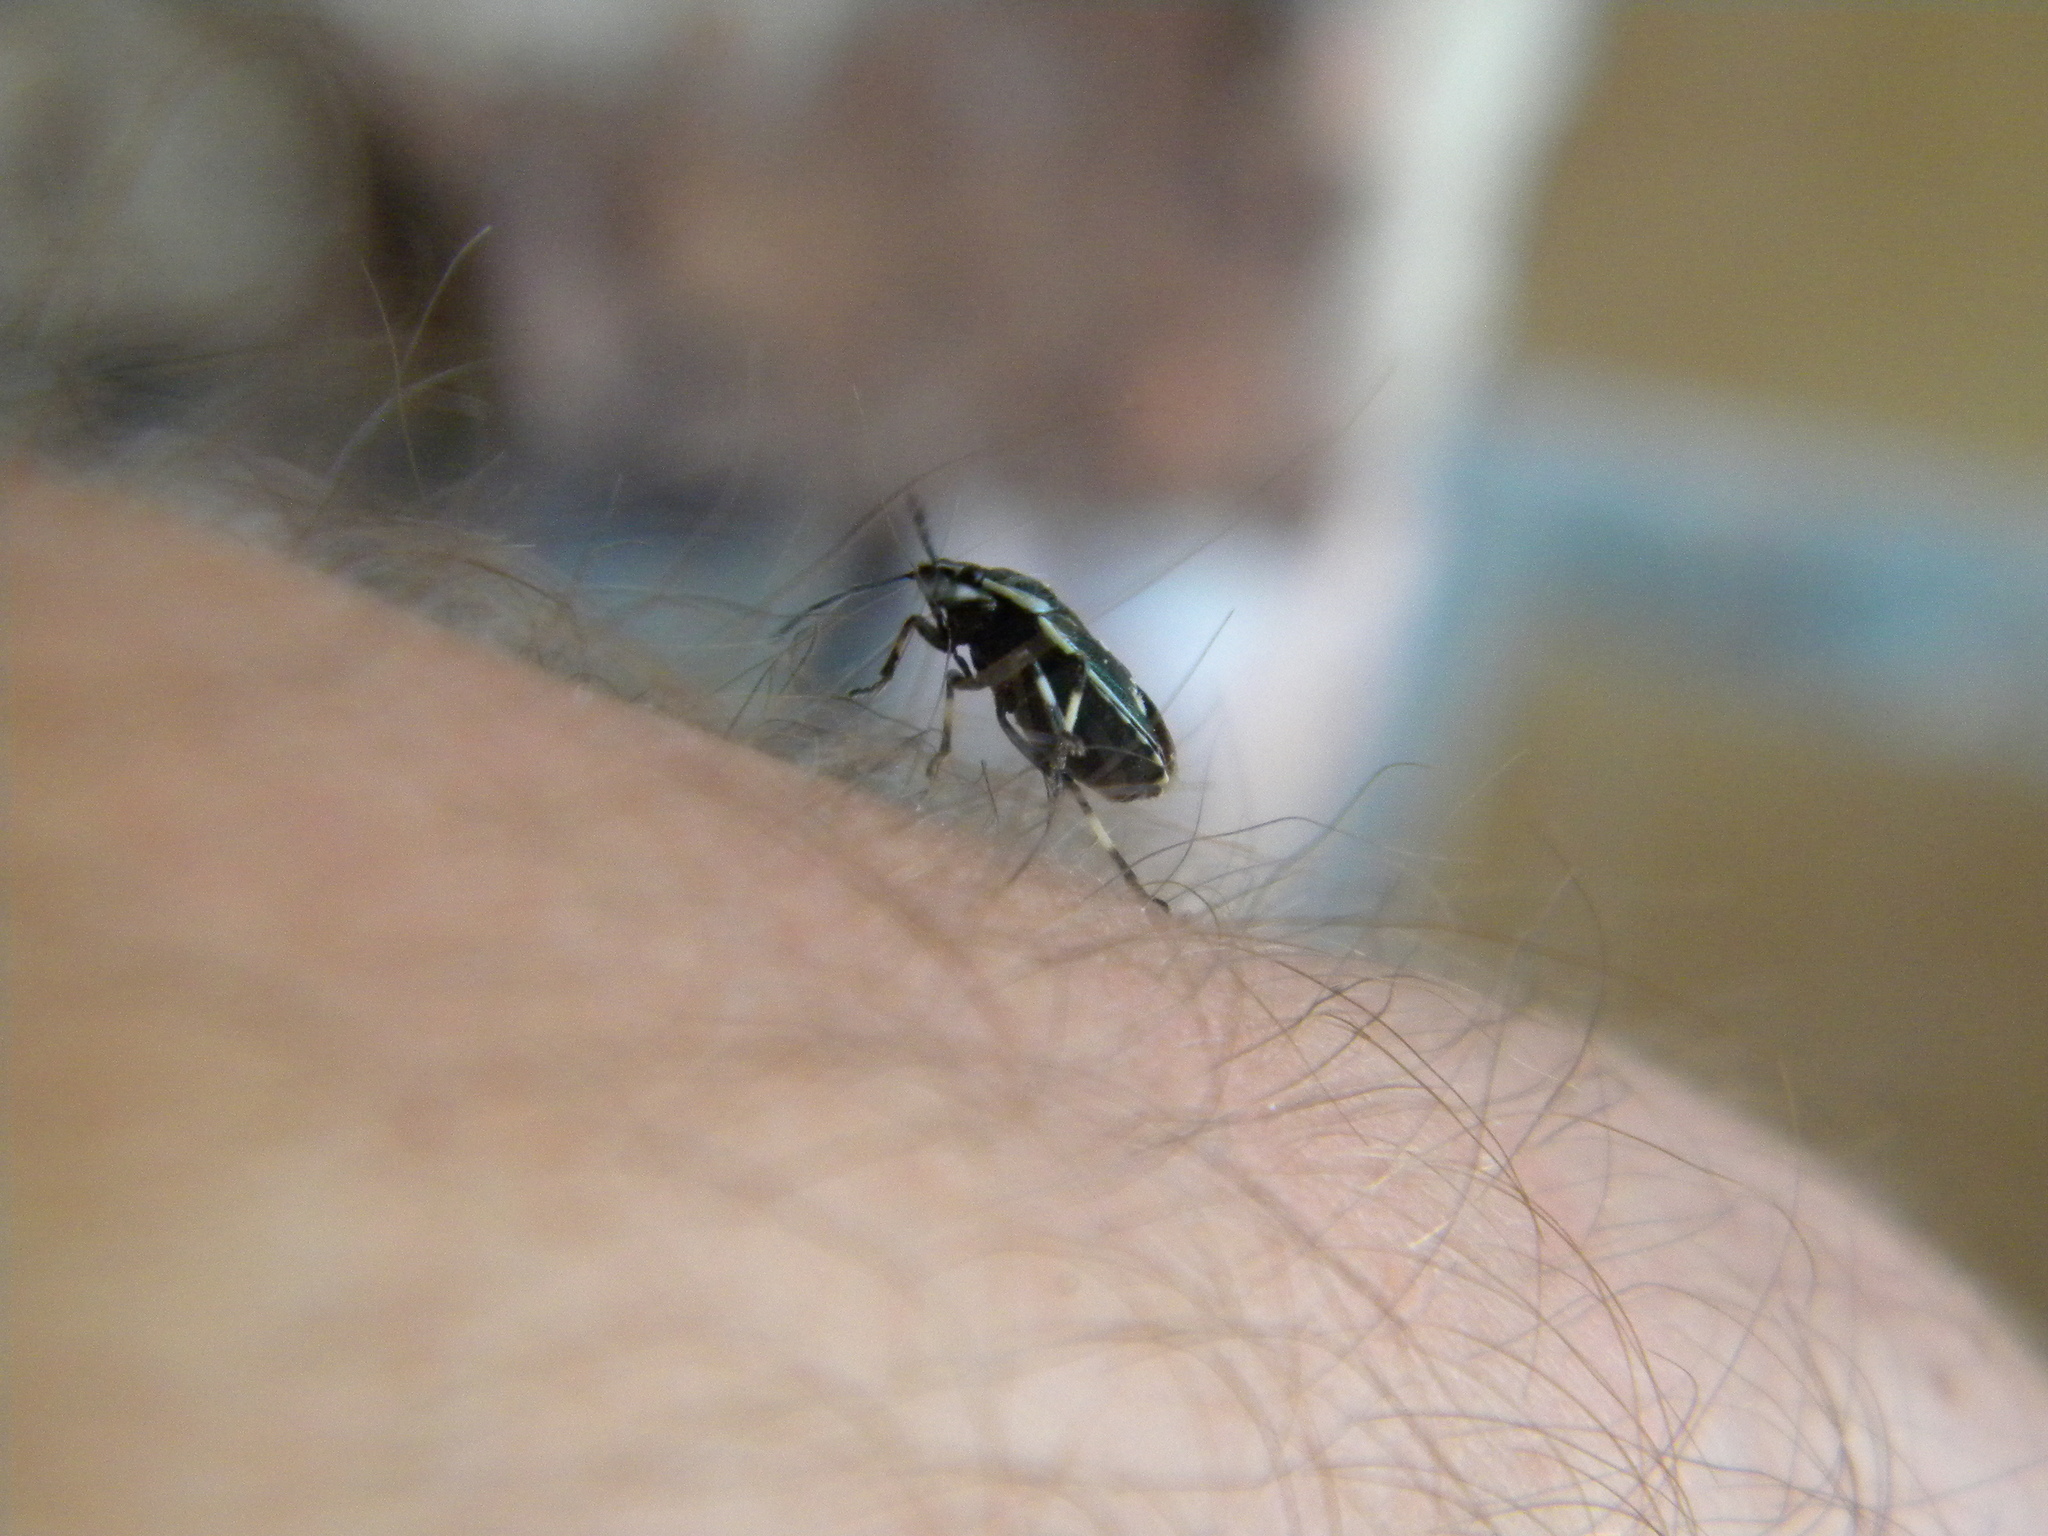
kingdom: Animalia
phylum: Arthropoda
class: Insecta
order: Hemiptera
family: Pentatomidae
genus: Eurydema
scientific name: Eurydema oleracea
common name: Cabbage bug
